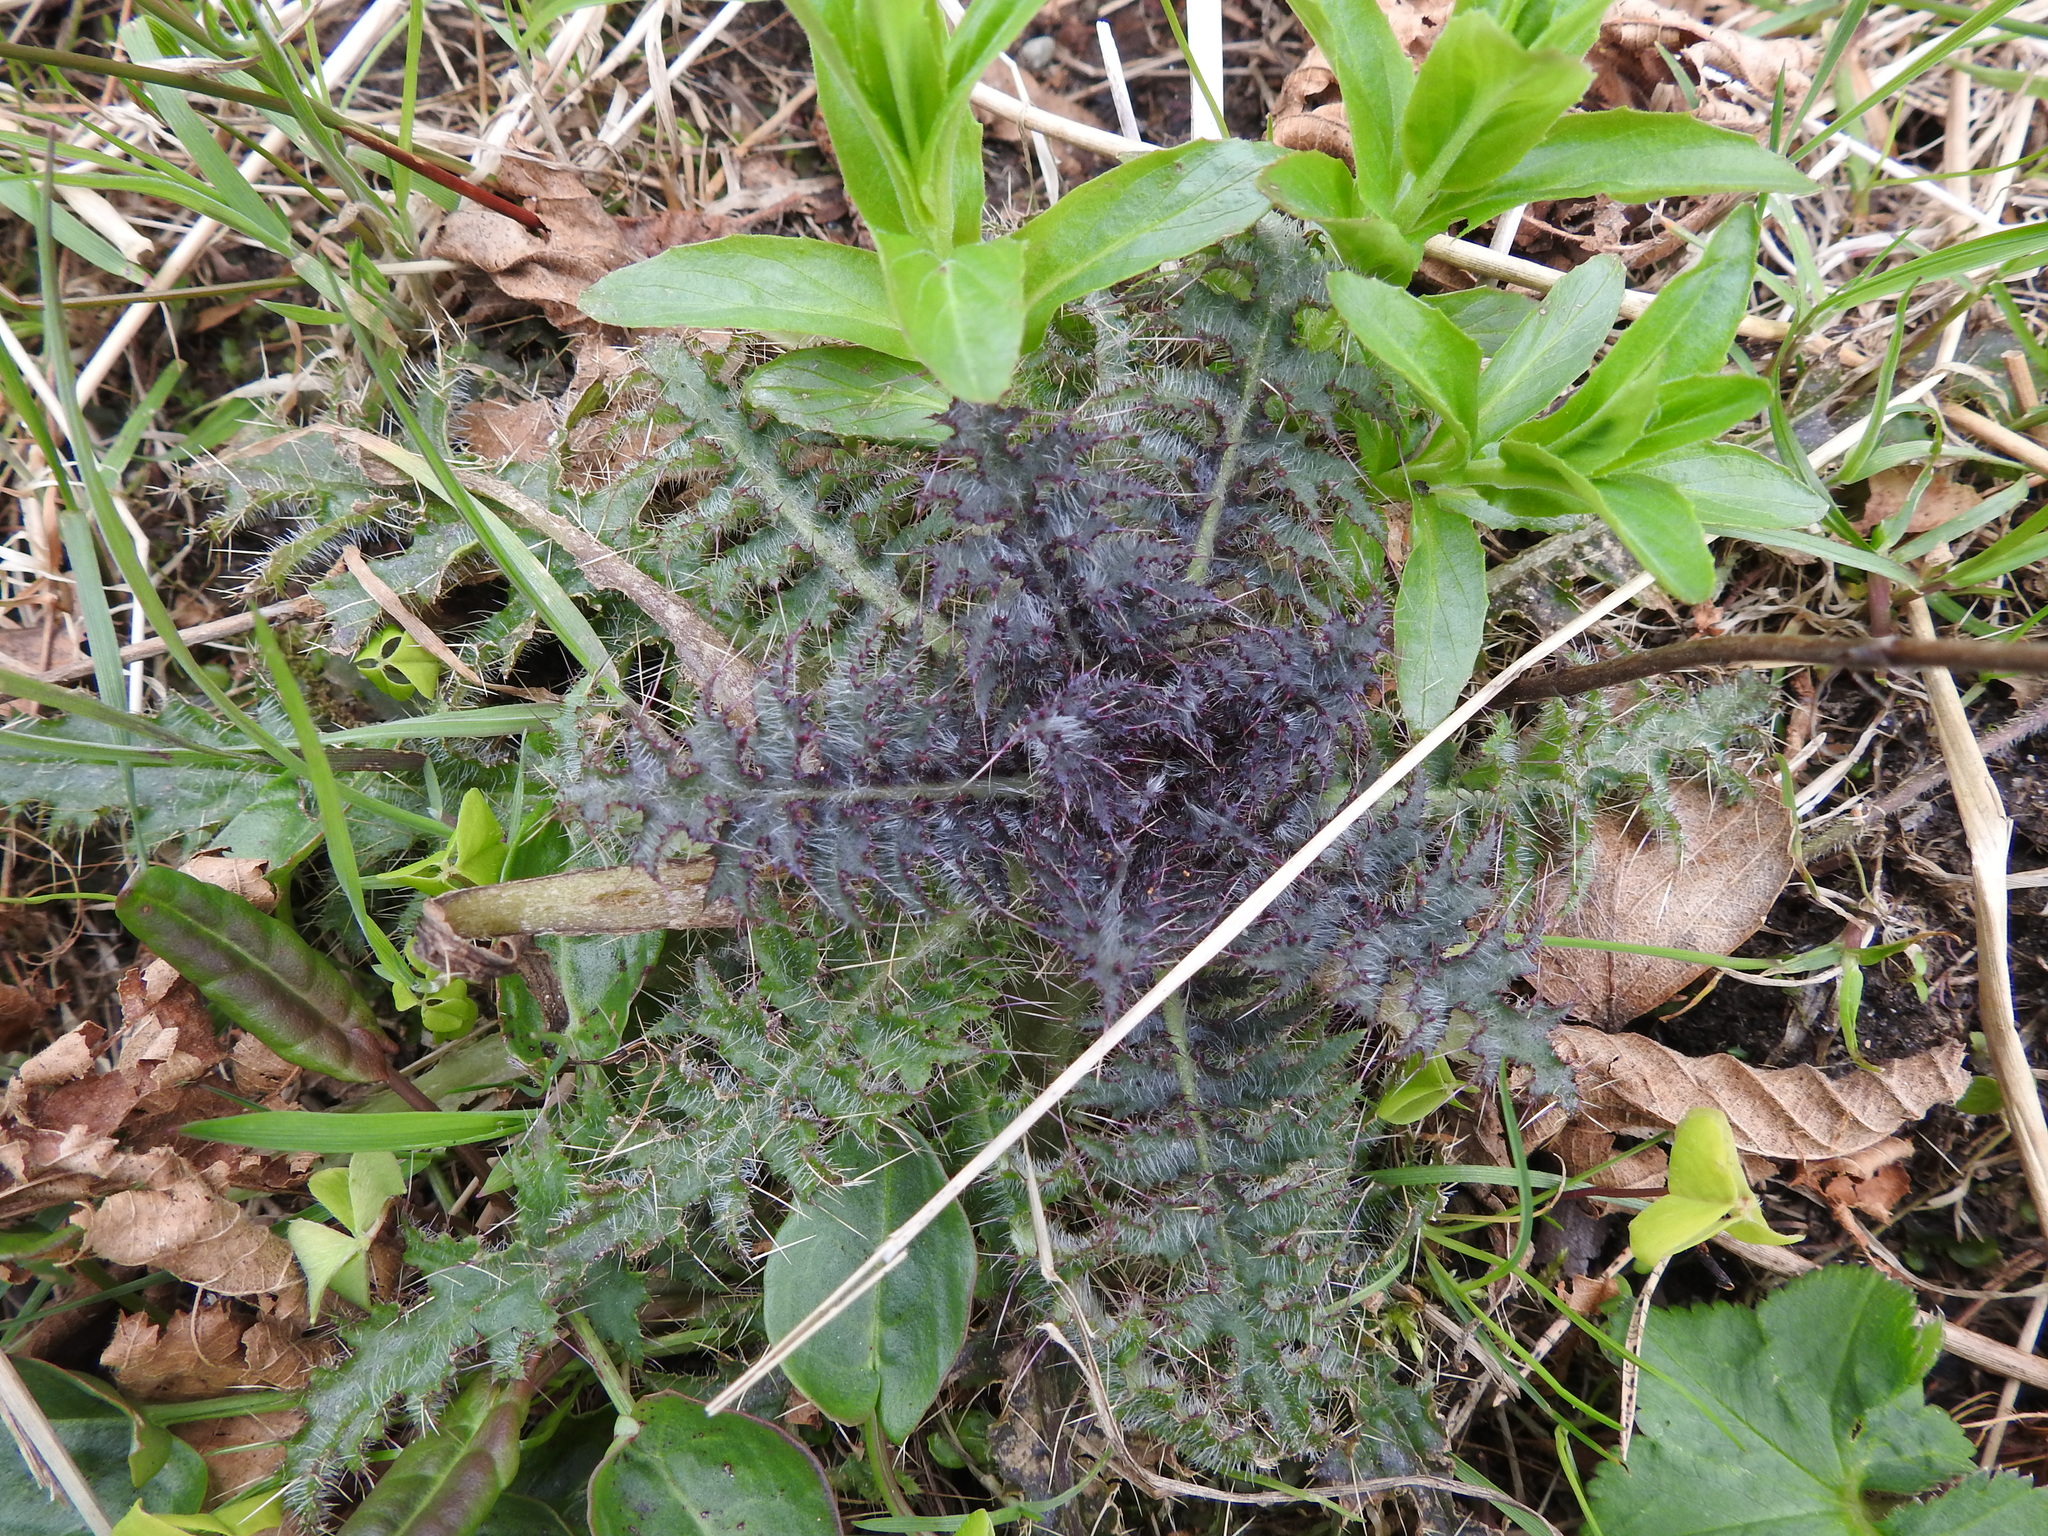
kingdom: Plantae
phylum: Tracheophyta
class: Magnoliopsida
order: Asterales
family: Asteraceae
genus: Cirsium
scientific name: Cirsium palustre
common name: Marsh thistle
